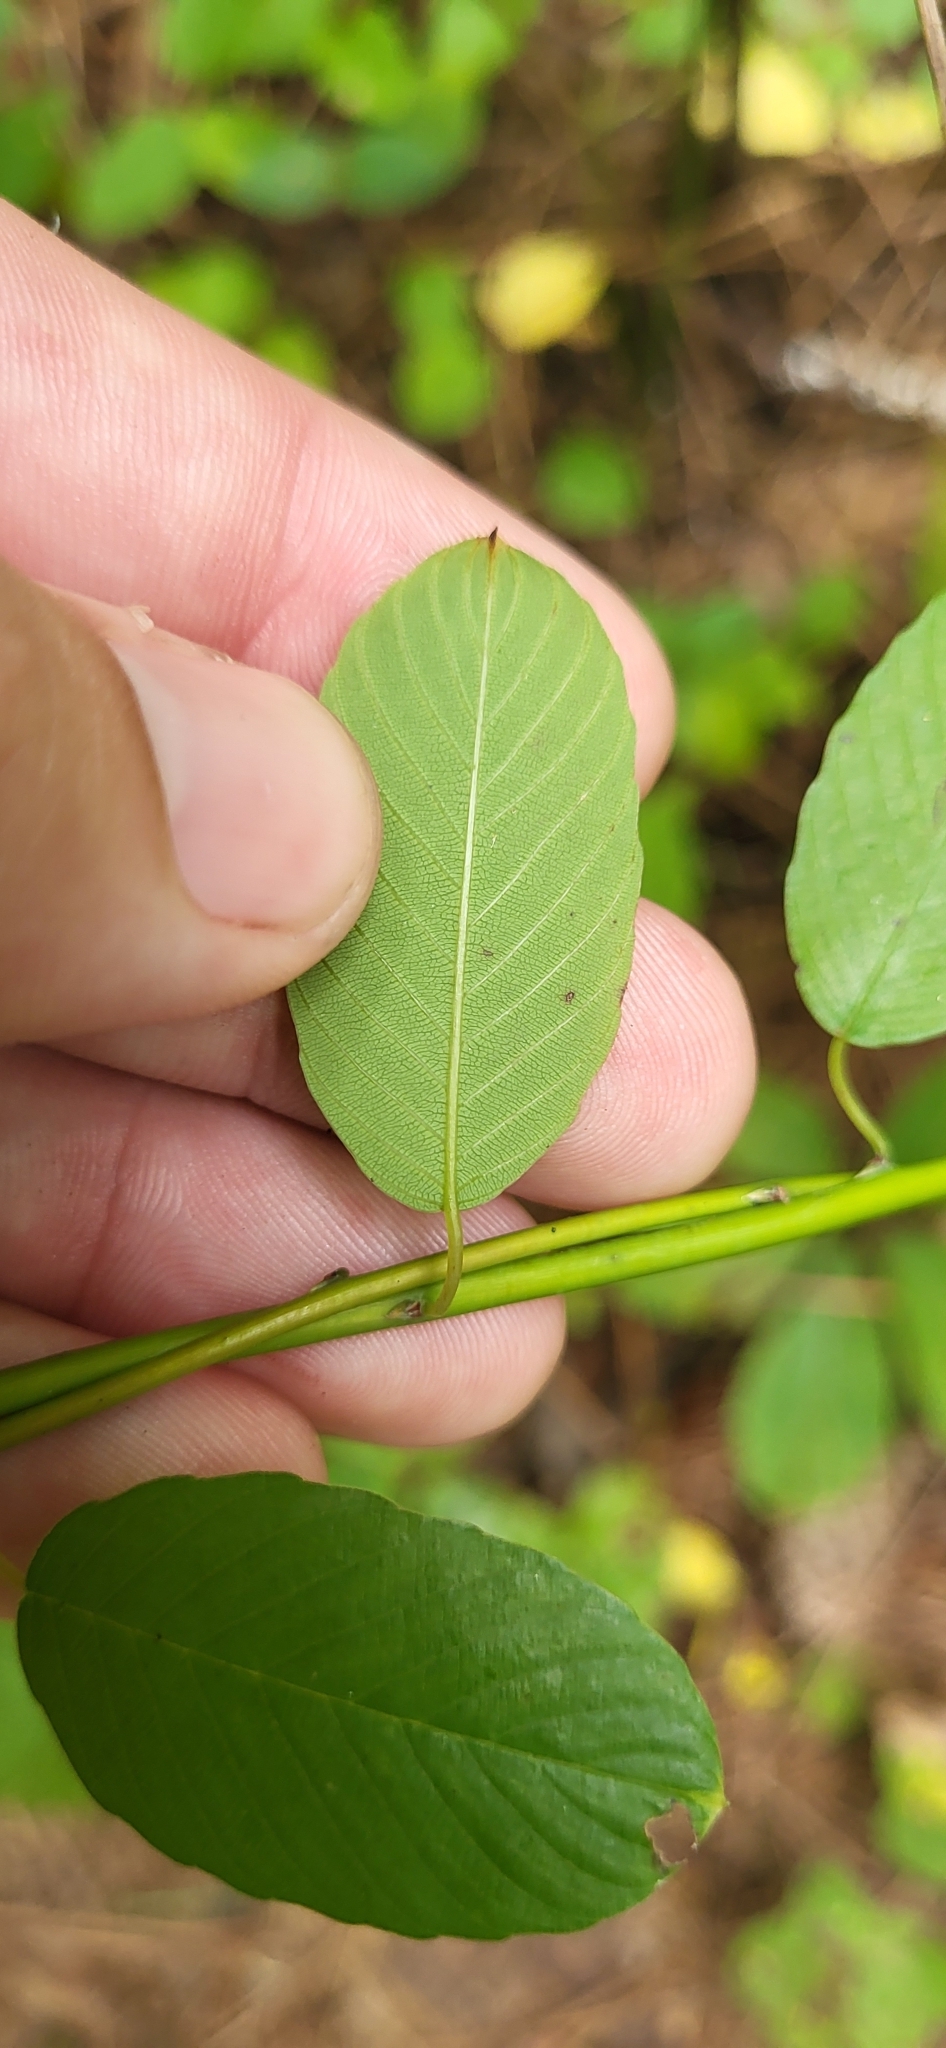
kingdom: Plantae
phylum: Tracheophyta
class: Magnoliopsida
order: Rosales
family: Rhamnaceae
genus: Berchemia
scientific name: Berchemia scandens
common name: Supplejack
